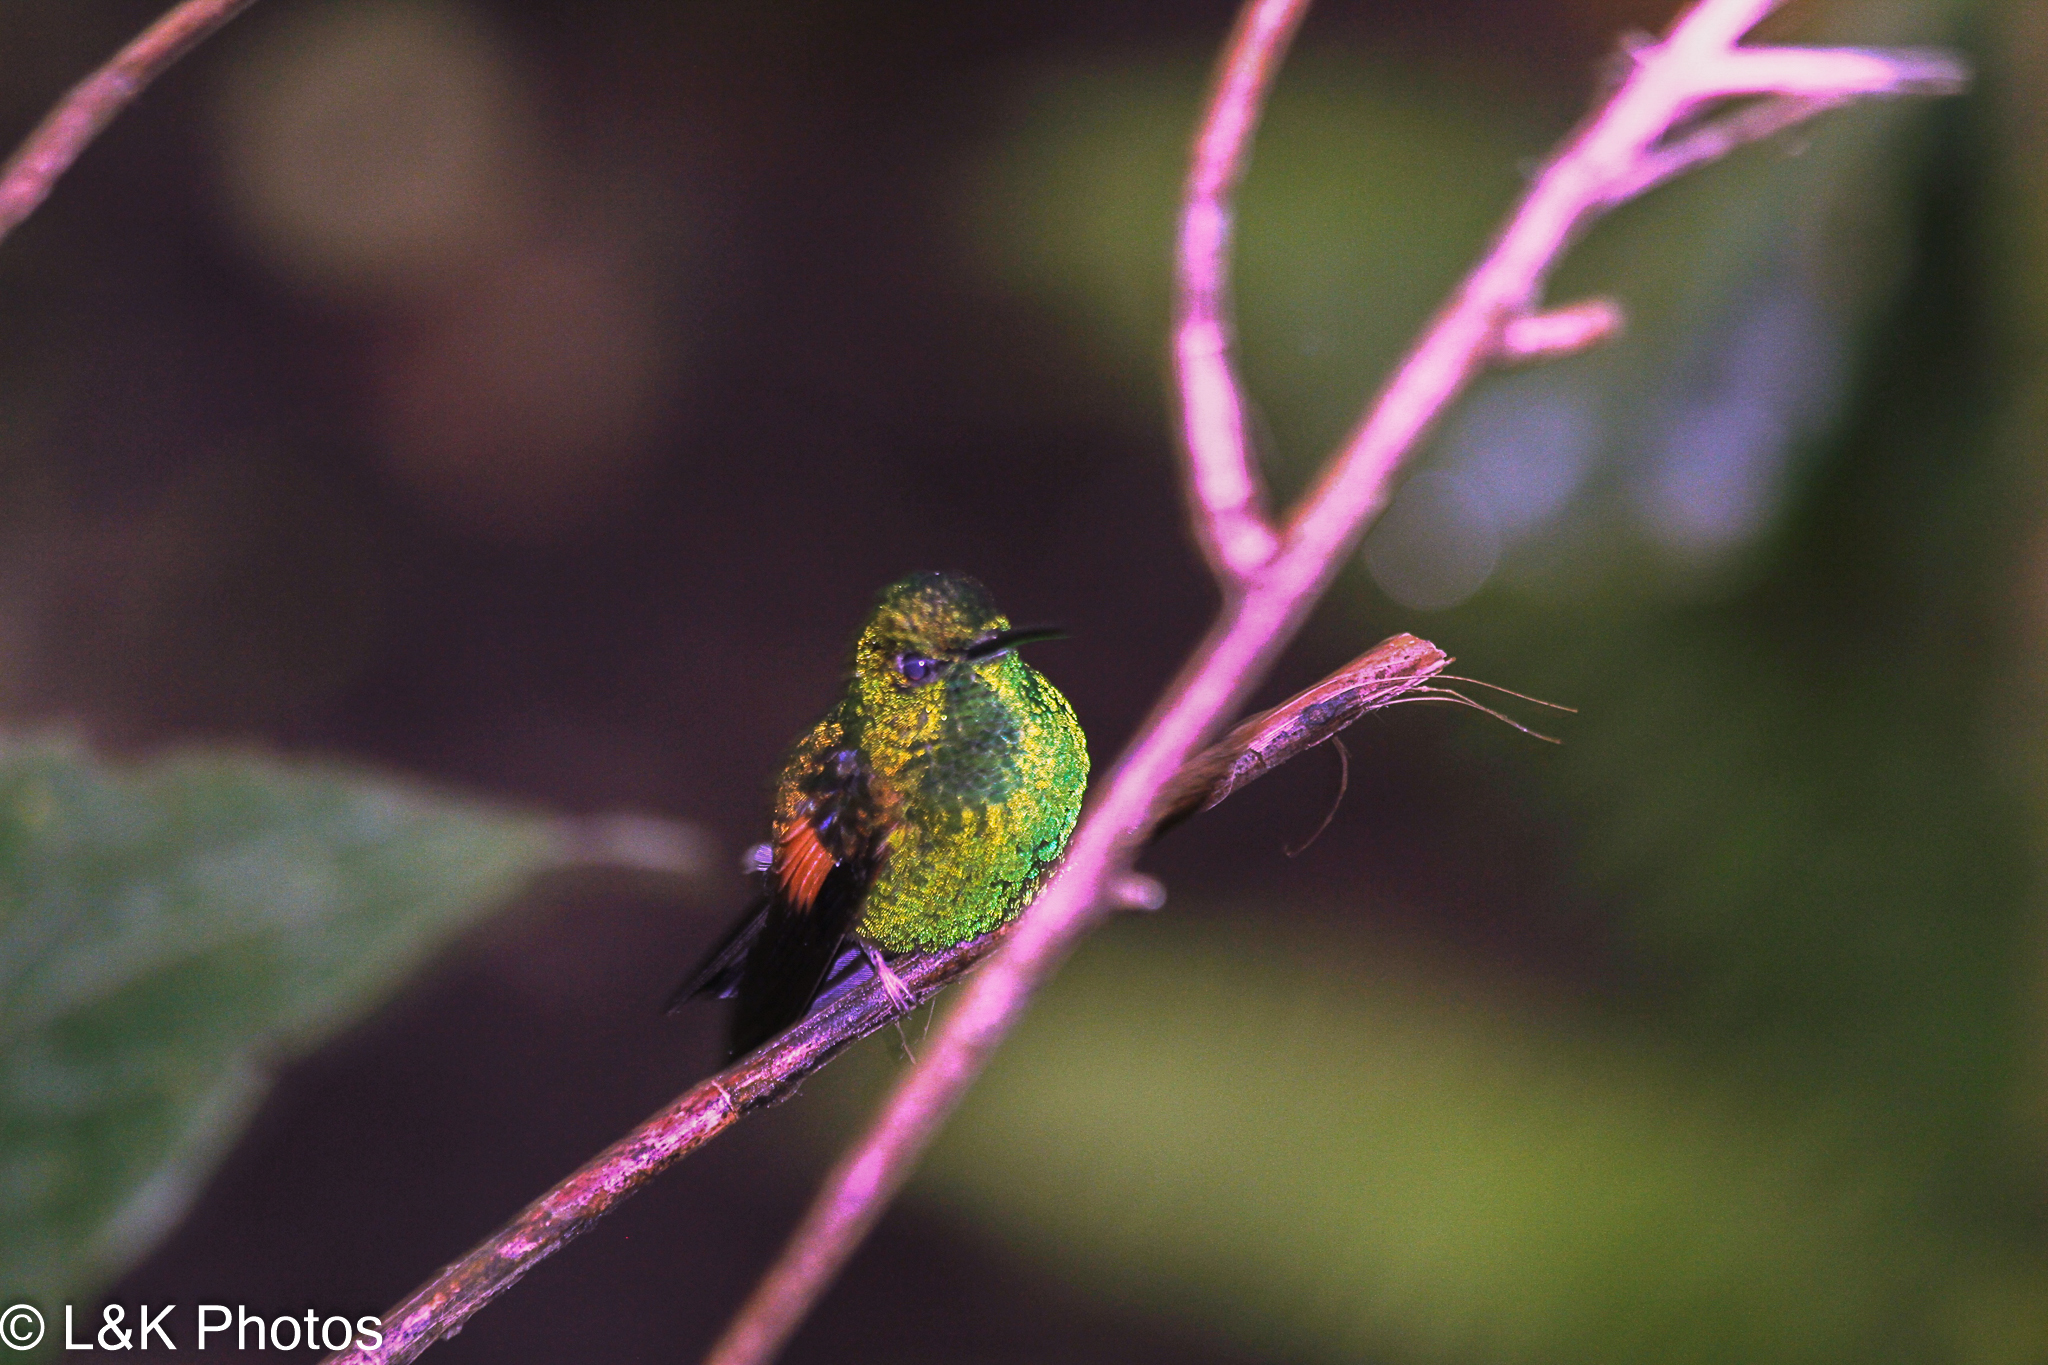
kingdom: Animalia
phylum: Chordata
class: Aves
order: Apodiformes
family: Trochilidae
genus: Eupherusa
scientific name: Eupherusa eximia
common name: Stripe-tailed hummingbird
